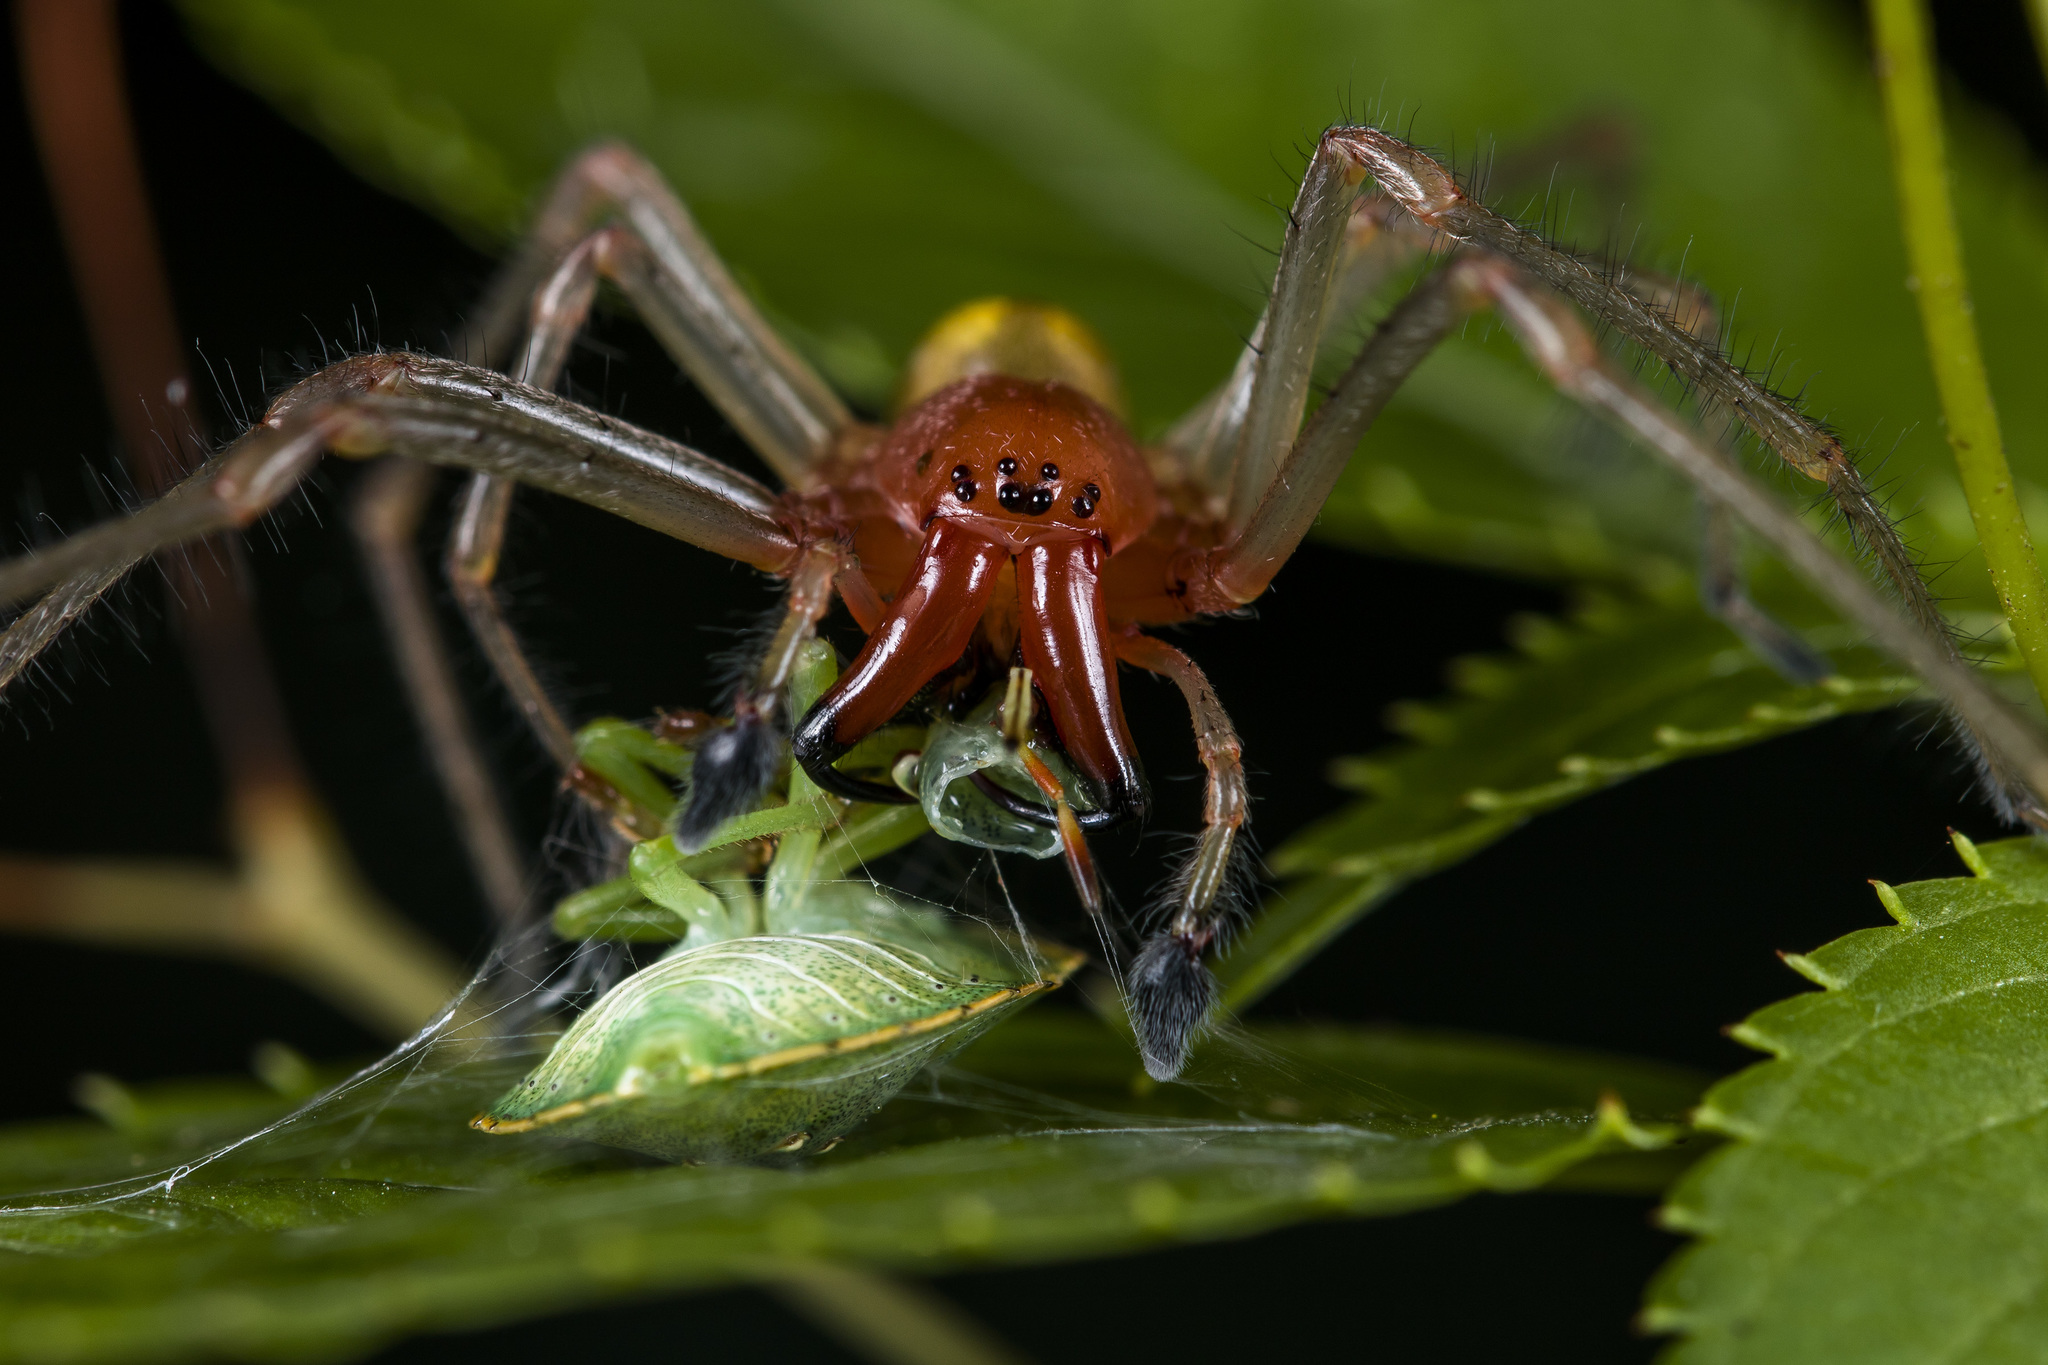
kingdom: Animalia
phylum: Arthropoda
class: Arachnida
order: Araneae
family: Cheiracanthiidae
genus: Cheiracanthium
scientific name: Cheiracanthium punctorium
